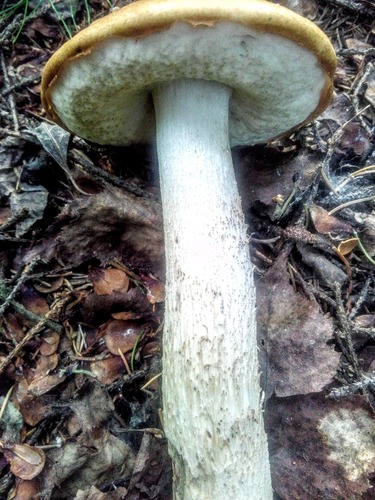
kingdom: Fungi
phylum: Basidiomycota
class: Agaricomycetes
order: Boletales
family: Boletaceae
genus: Leccinum
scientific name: Leccinum albostipitatum
